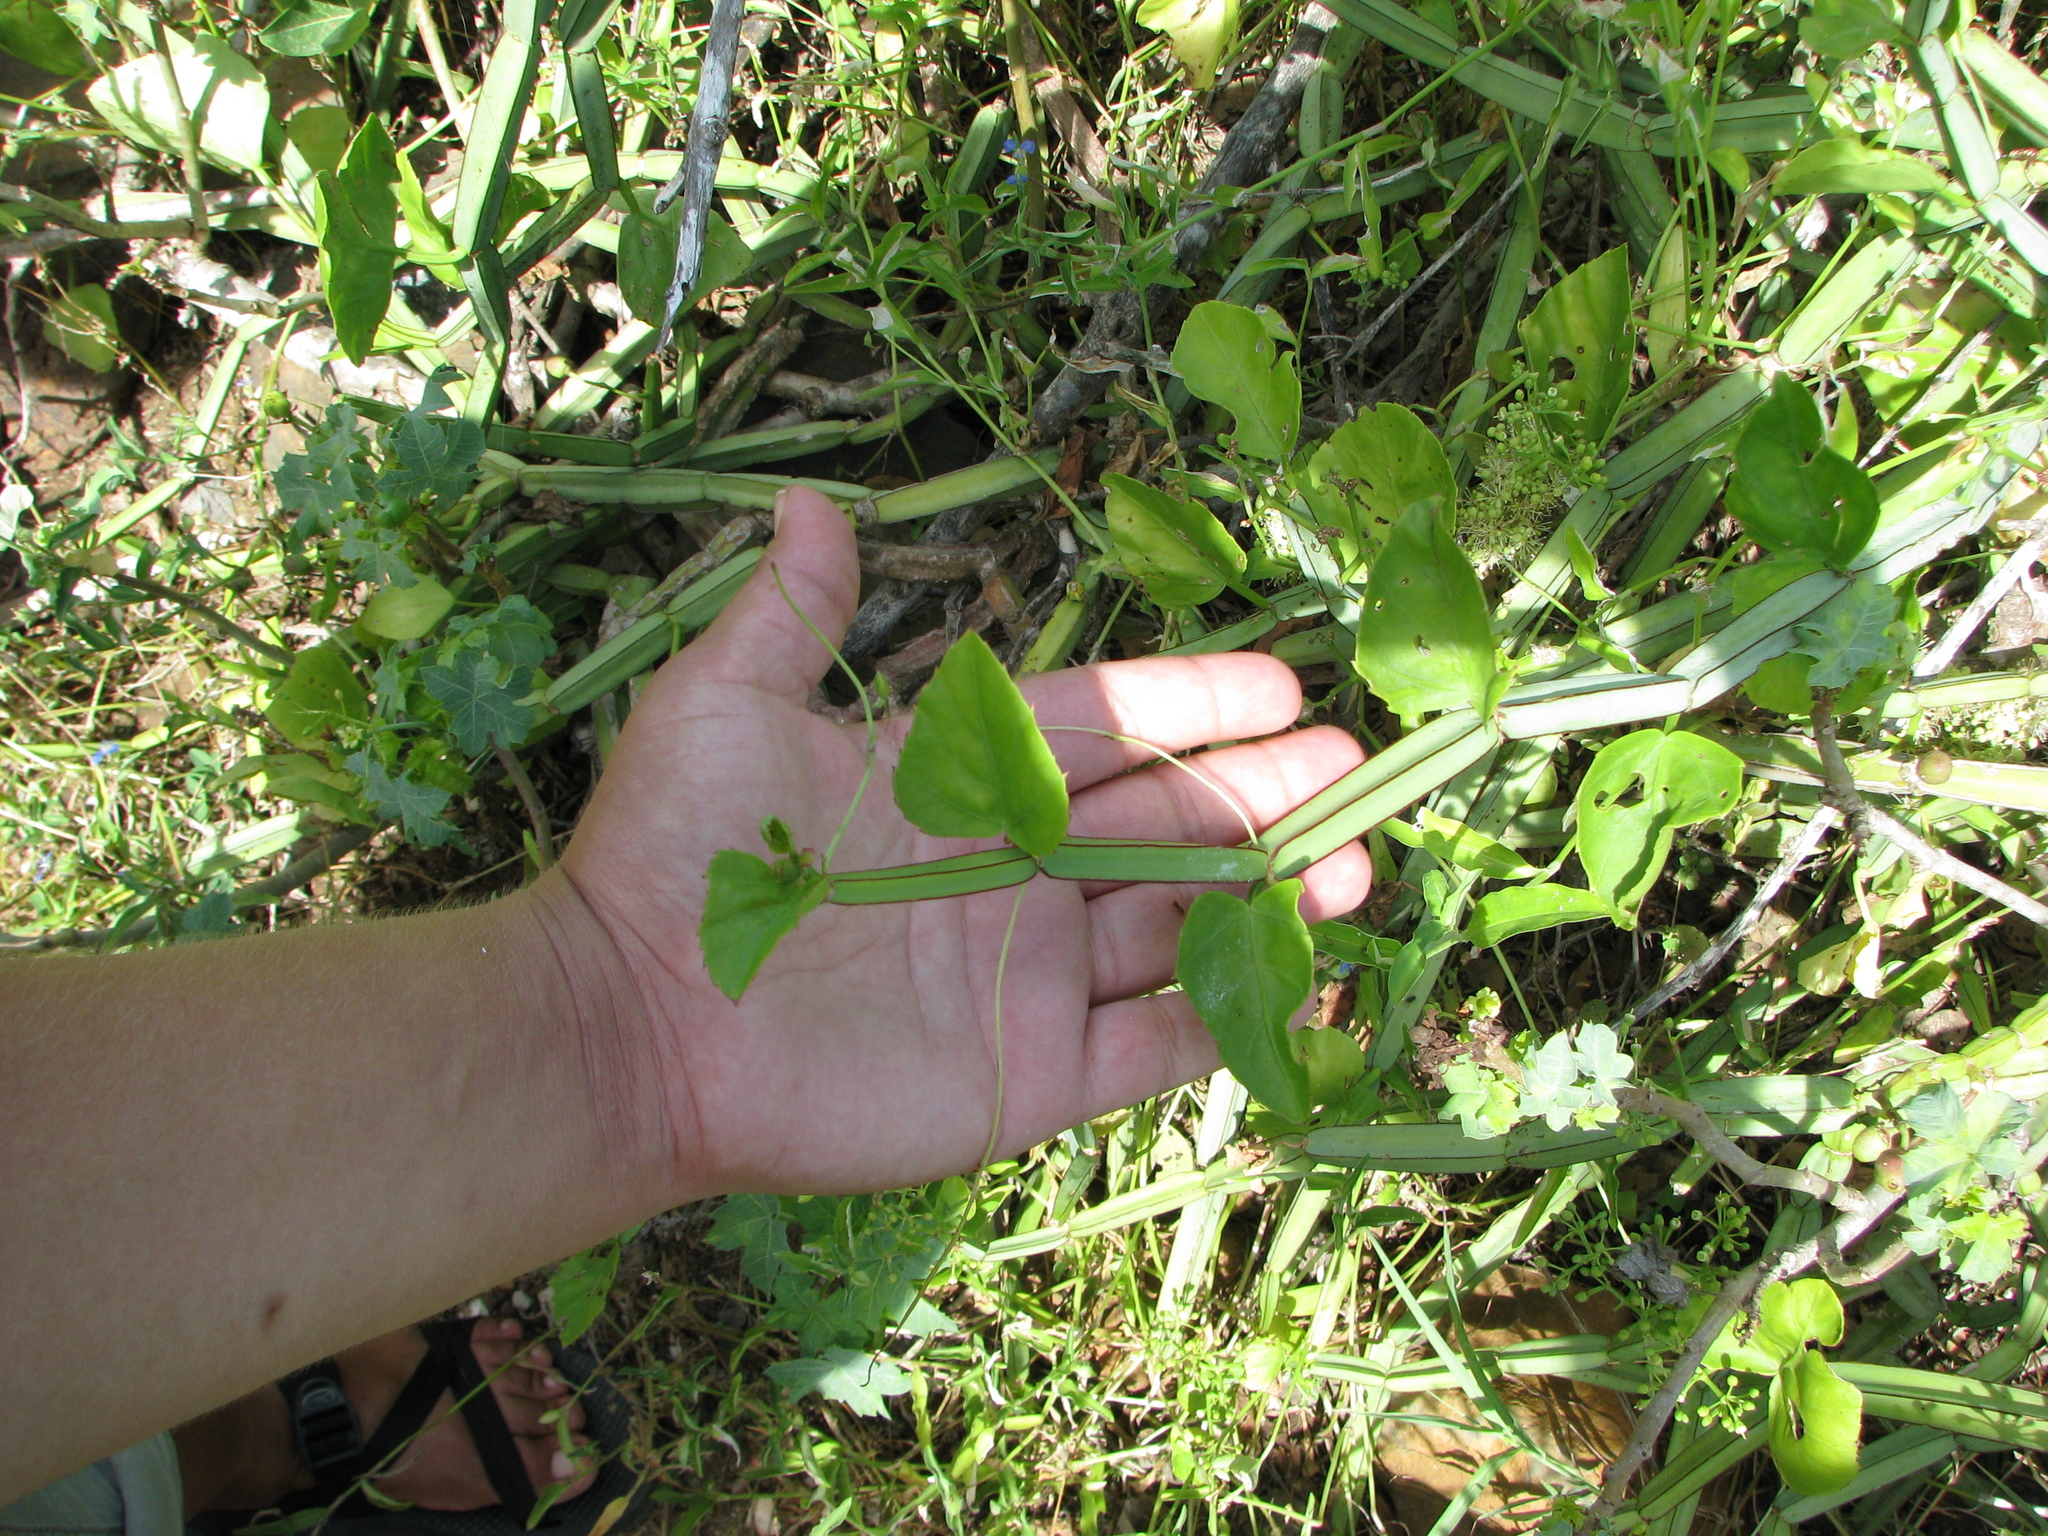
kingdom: Plantae
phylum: Tracheophyta
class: Magnoliopsida
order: Vitales
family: Vitaceae
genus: Cissus
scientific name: Cissus quadrangularis
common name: Veldt-grape
